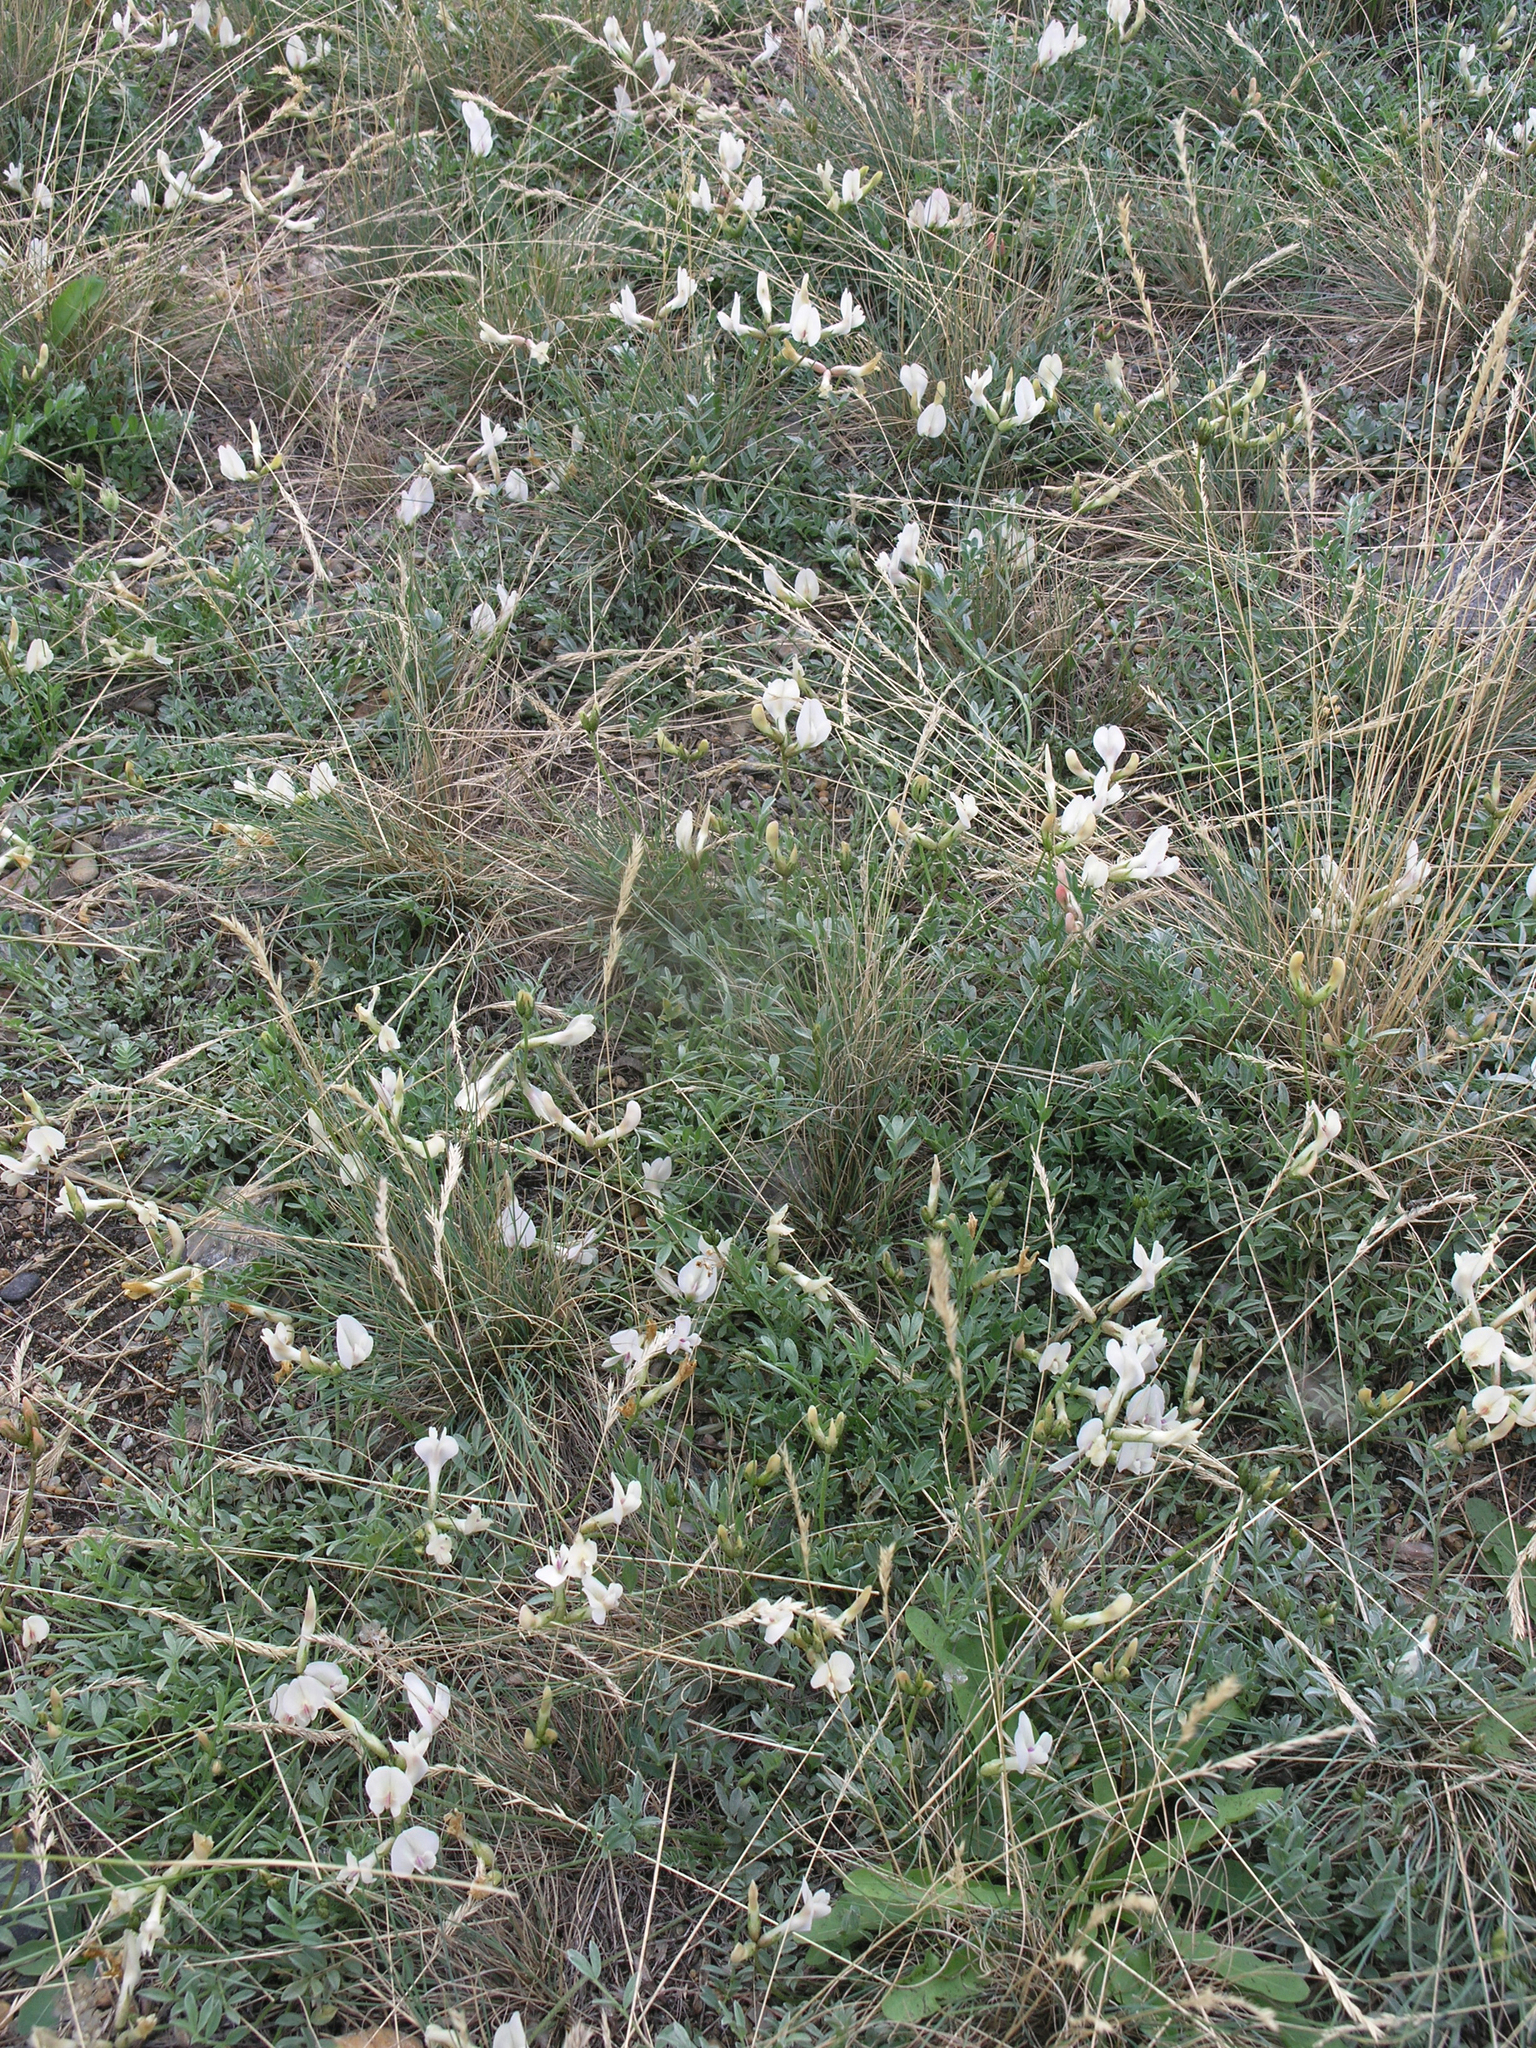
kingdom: Plantae
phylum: Tracheophyta
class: Magnoliopsida
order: Fabales
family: Fabaceae
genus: Astragalus
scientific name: Astragalus depauperatus
